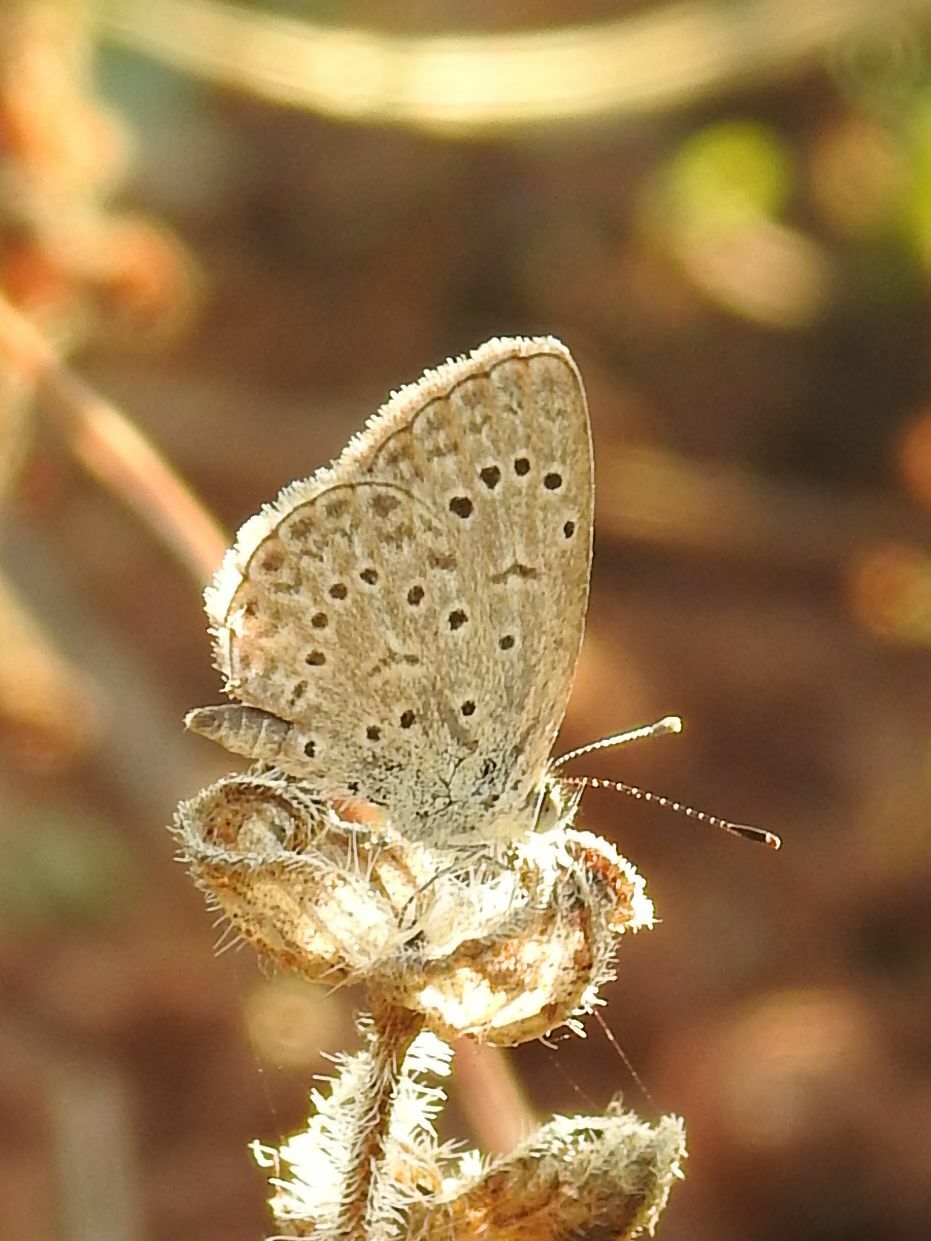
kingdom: Animalia
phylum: Arthropoda
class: Insecta
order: Lepidoptera
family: Lycaenidae
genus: Zizeeria
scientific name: Zizeeria knysna
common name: African grass blue
